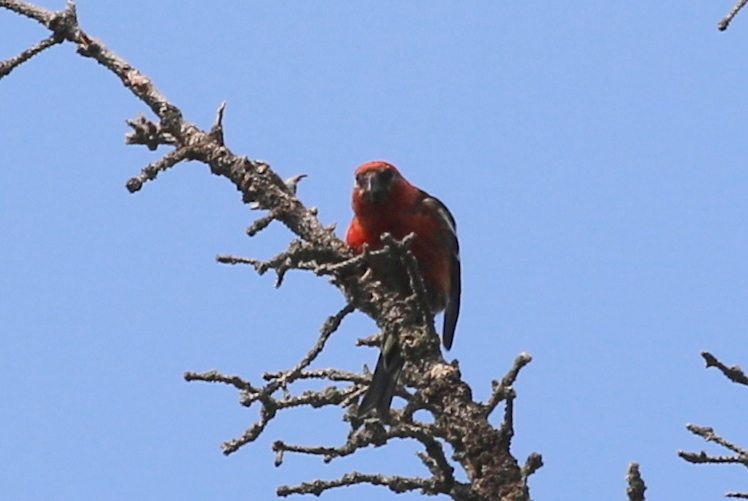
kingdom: Animalia
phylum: Chordata
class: Aves
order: Passeriformes
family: Fringillidae
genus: Loxia
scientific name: Loxia leucoptera
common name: Two-barred crossbill
